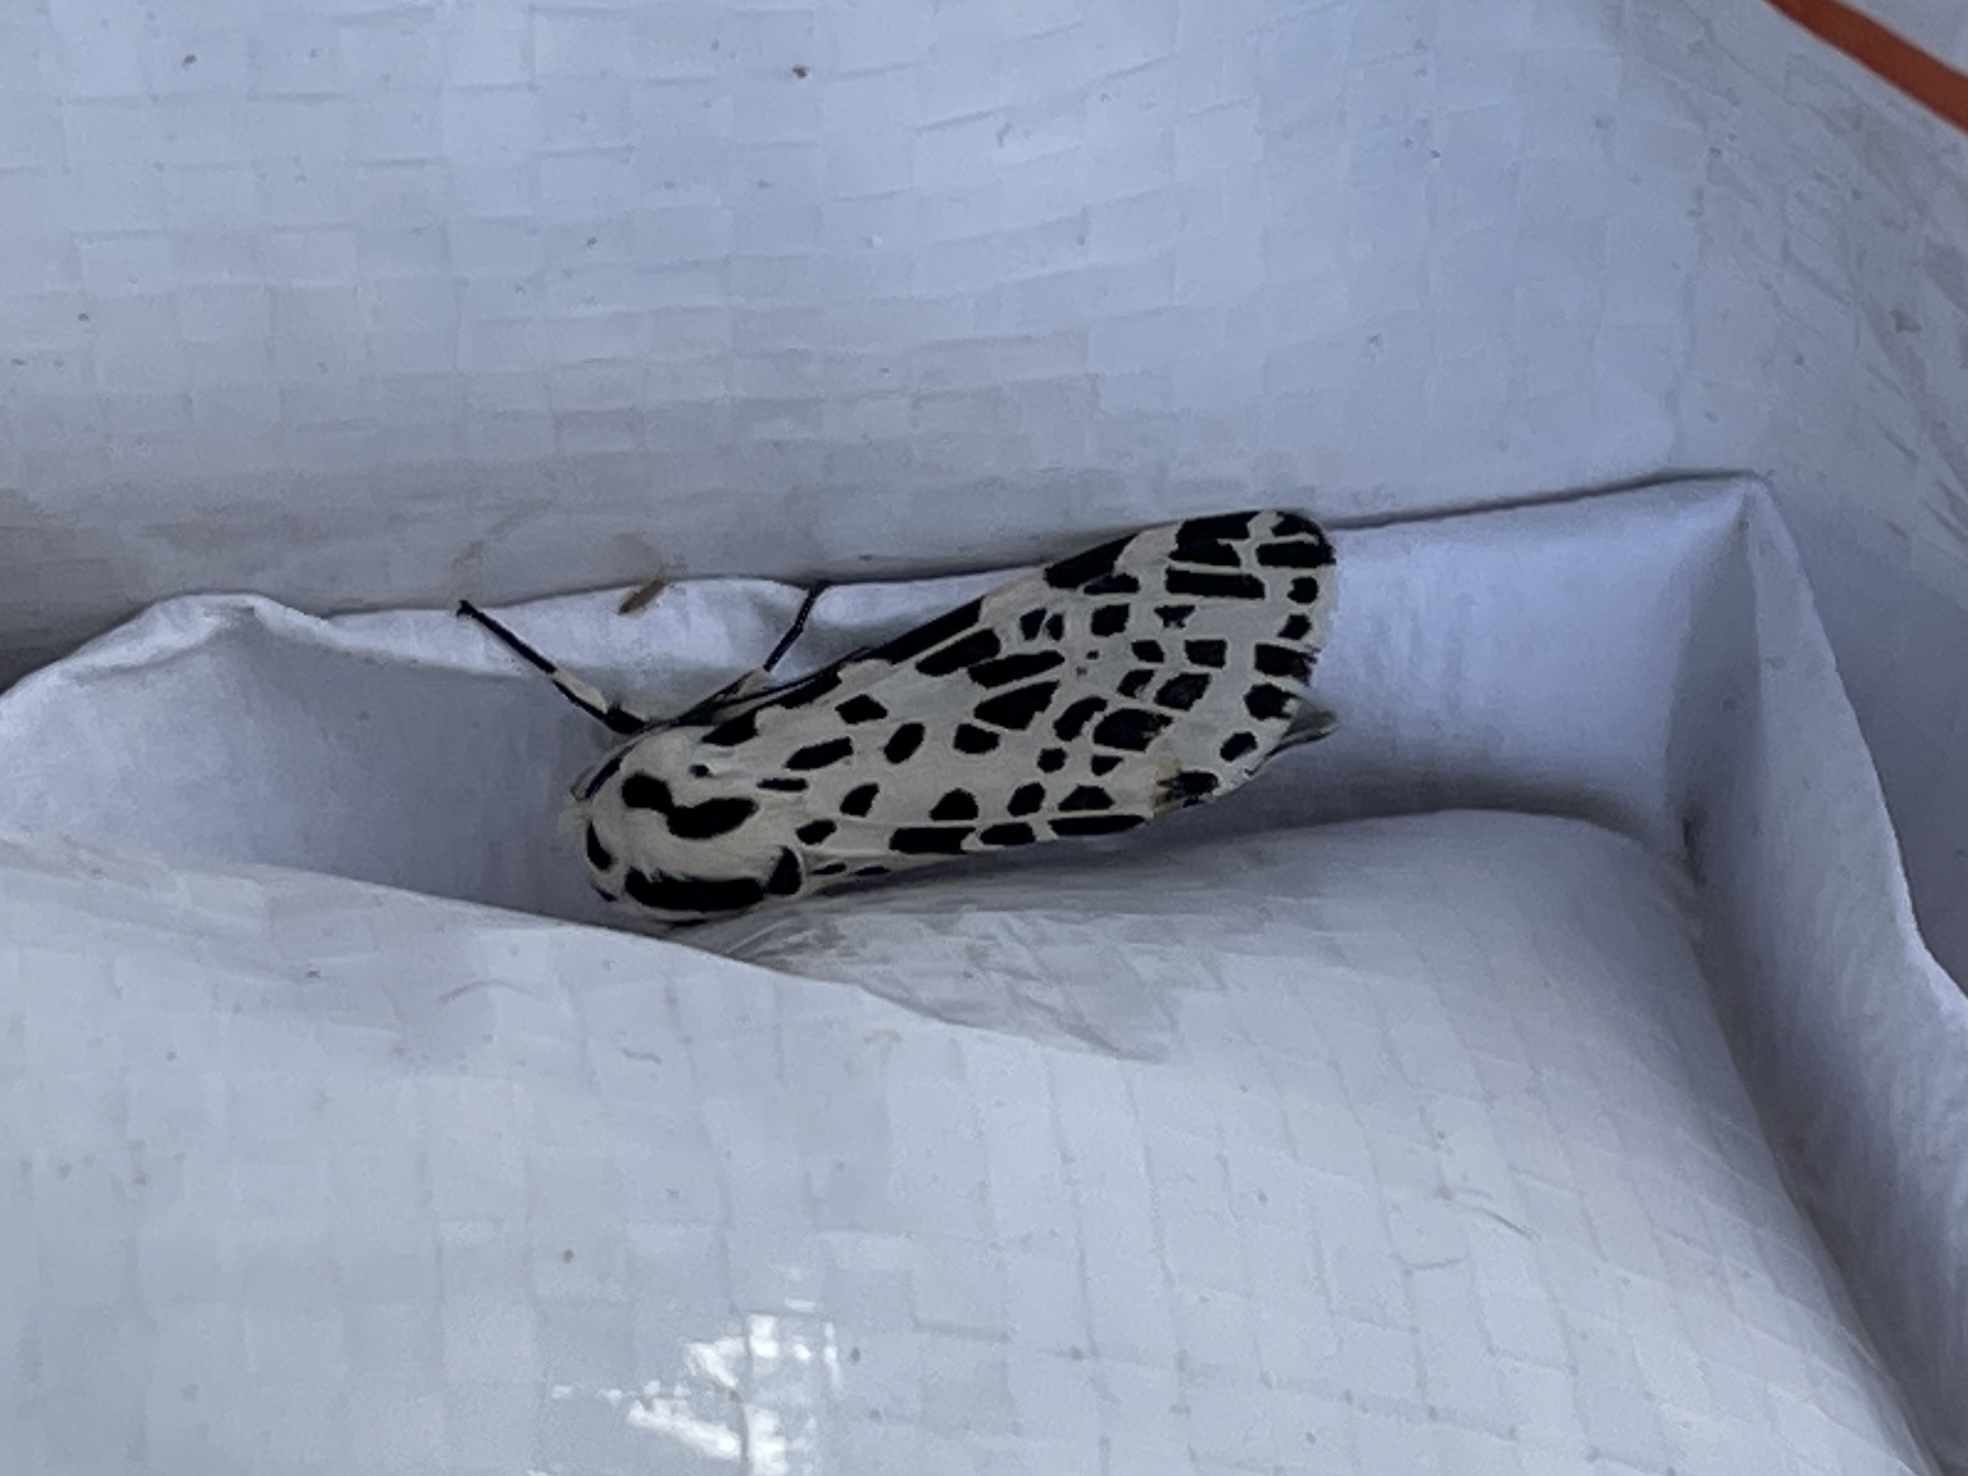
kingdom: Animalia
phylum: Arthropoda
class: Insecta
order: Lepidoptera
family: Erebidae
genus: Hypercompe
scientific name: Hypercompe permaculata
